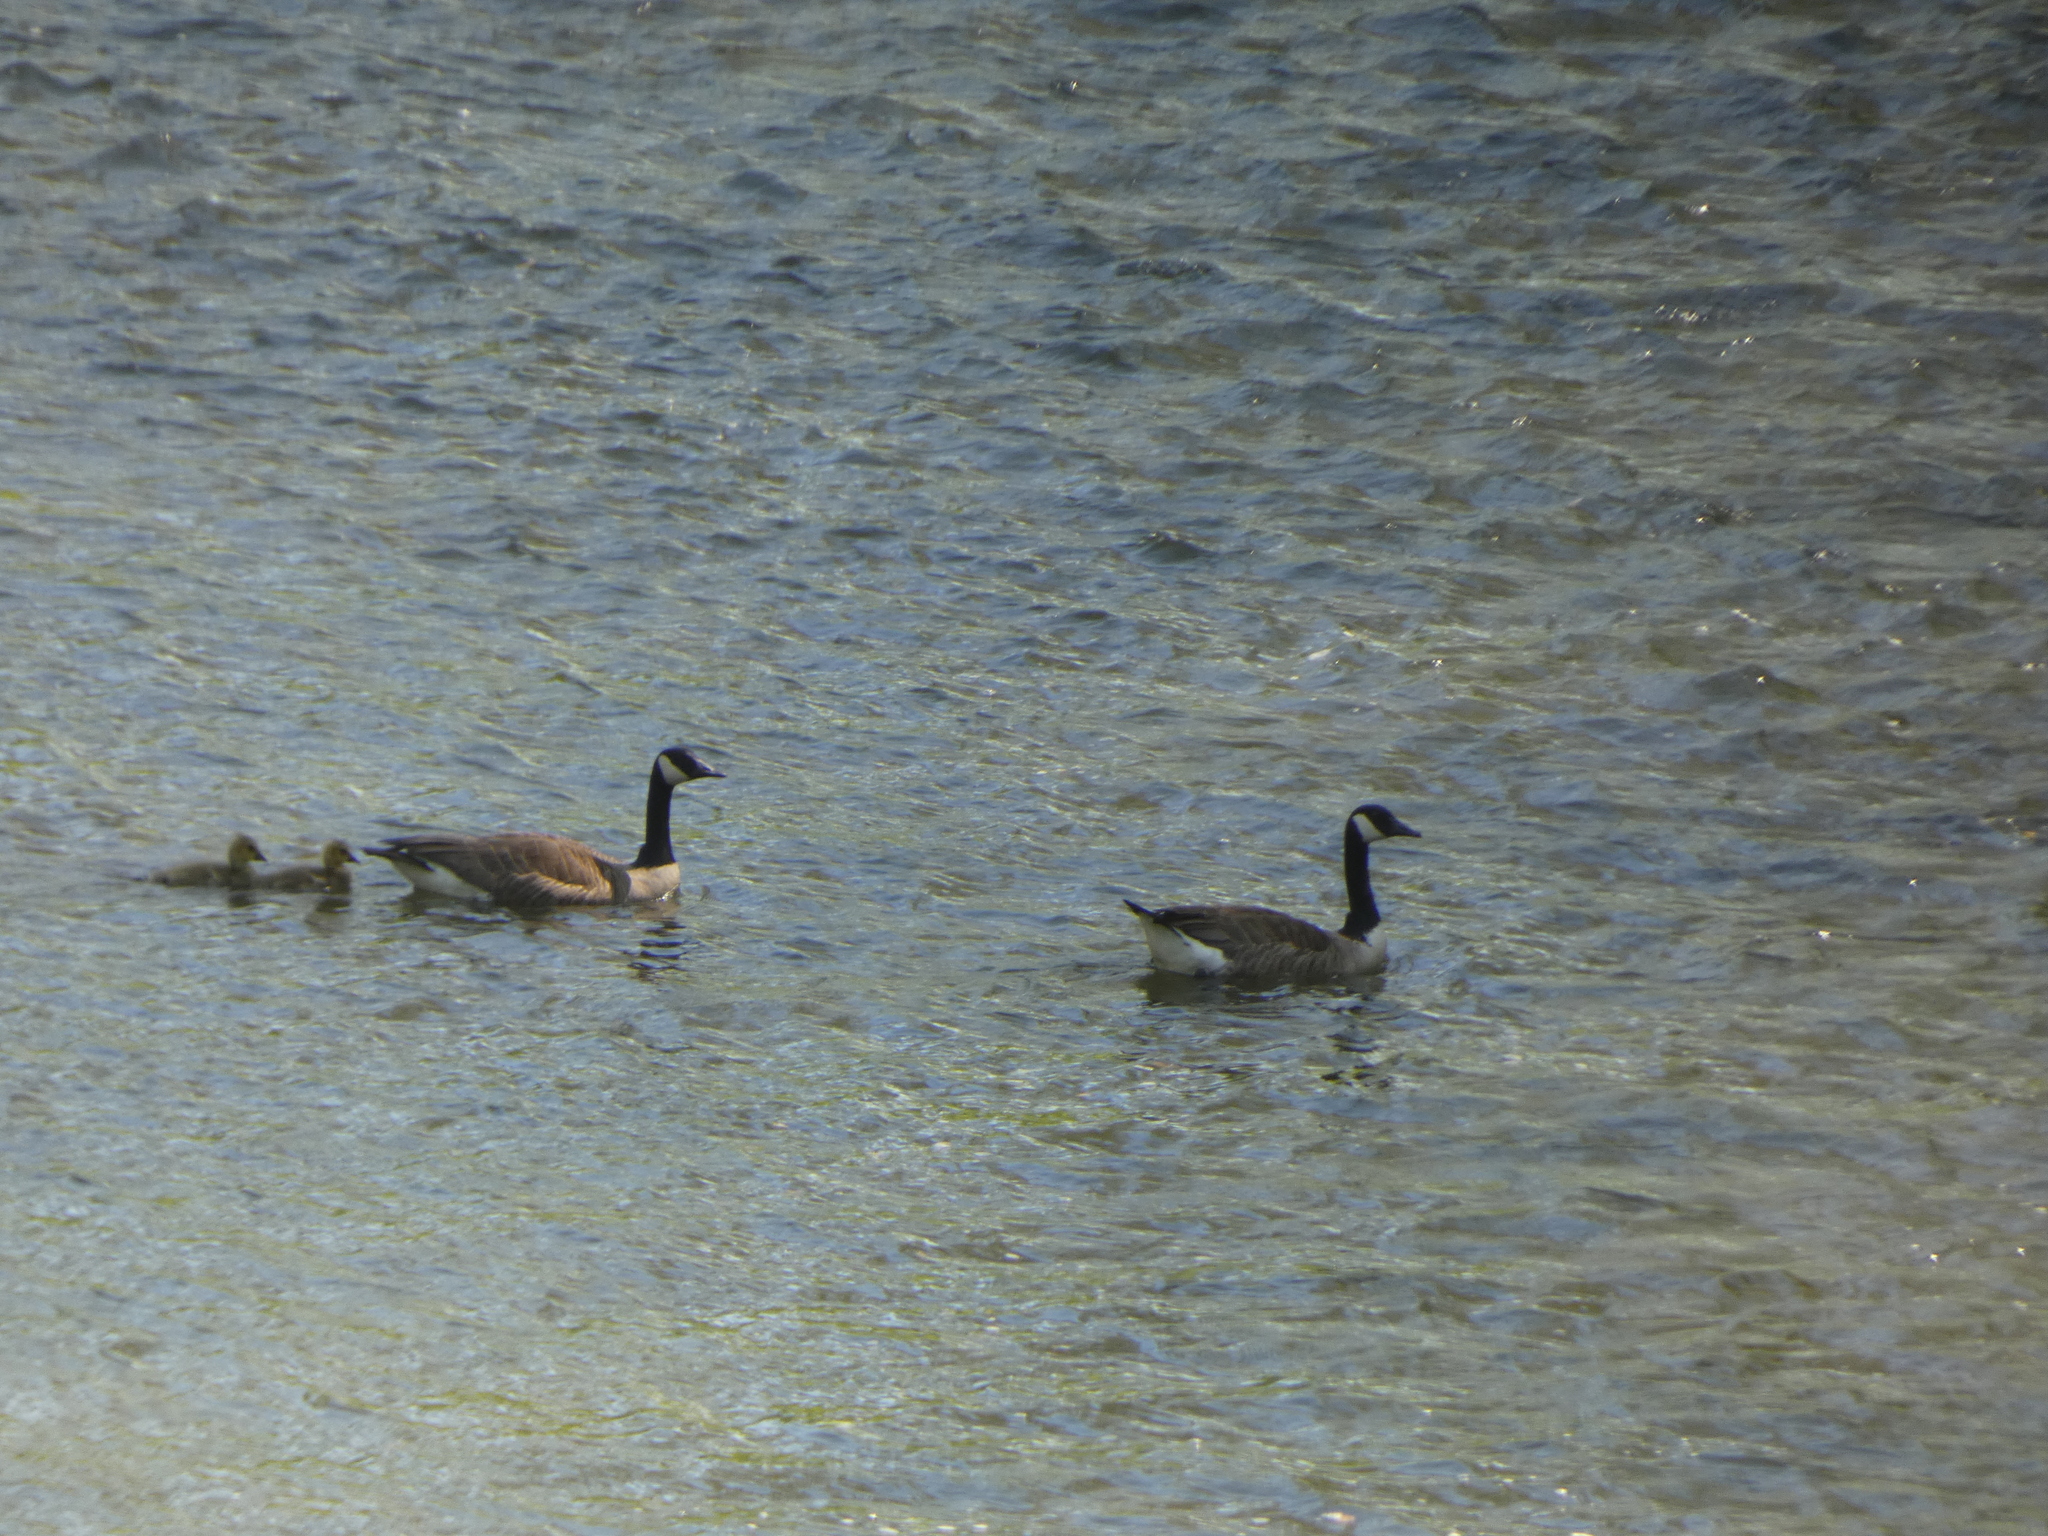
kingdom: Animalia
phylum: Chordata
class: Aves
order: Anseriformes
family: Anatidae
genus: Branta
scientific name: Branta canadensis
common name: Canada goose
